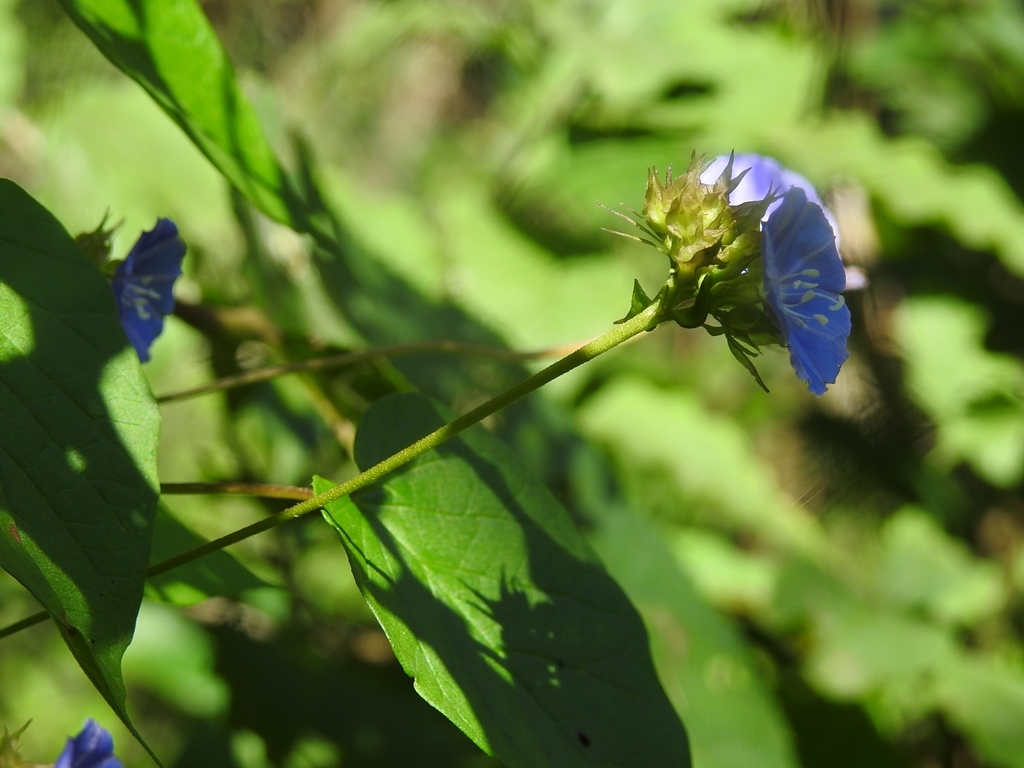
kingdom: Plantae
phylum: Tracheophyta
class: Magnoliopsida
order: Solanales
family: Convolvulaceae
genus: Jacquemontia
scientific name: Jacquemontia pentanthos
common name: Skyblue clustervine
